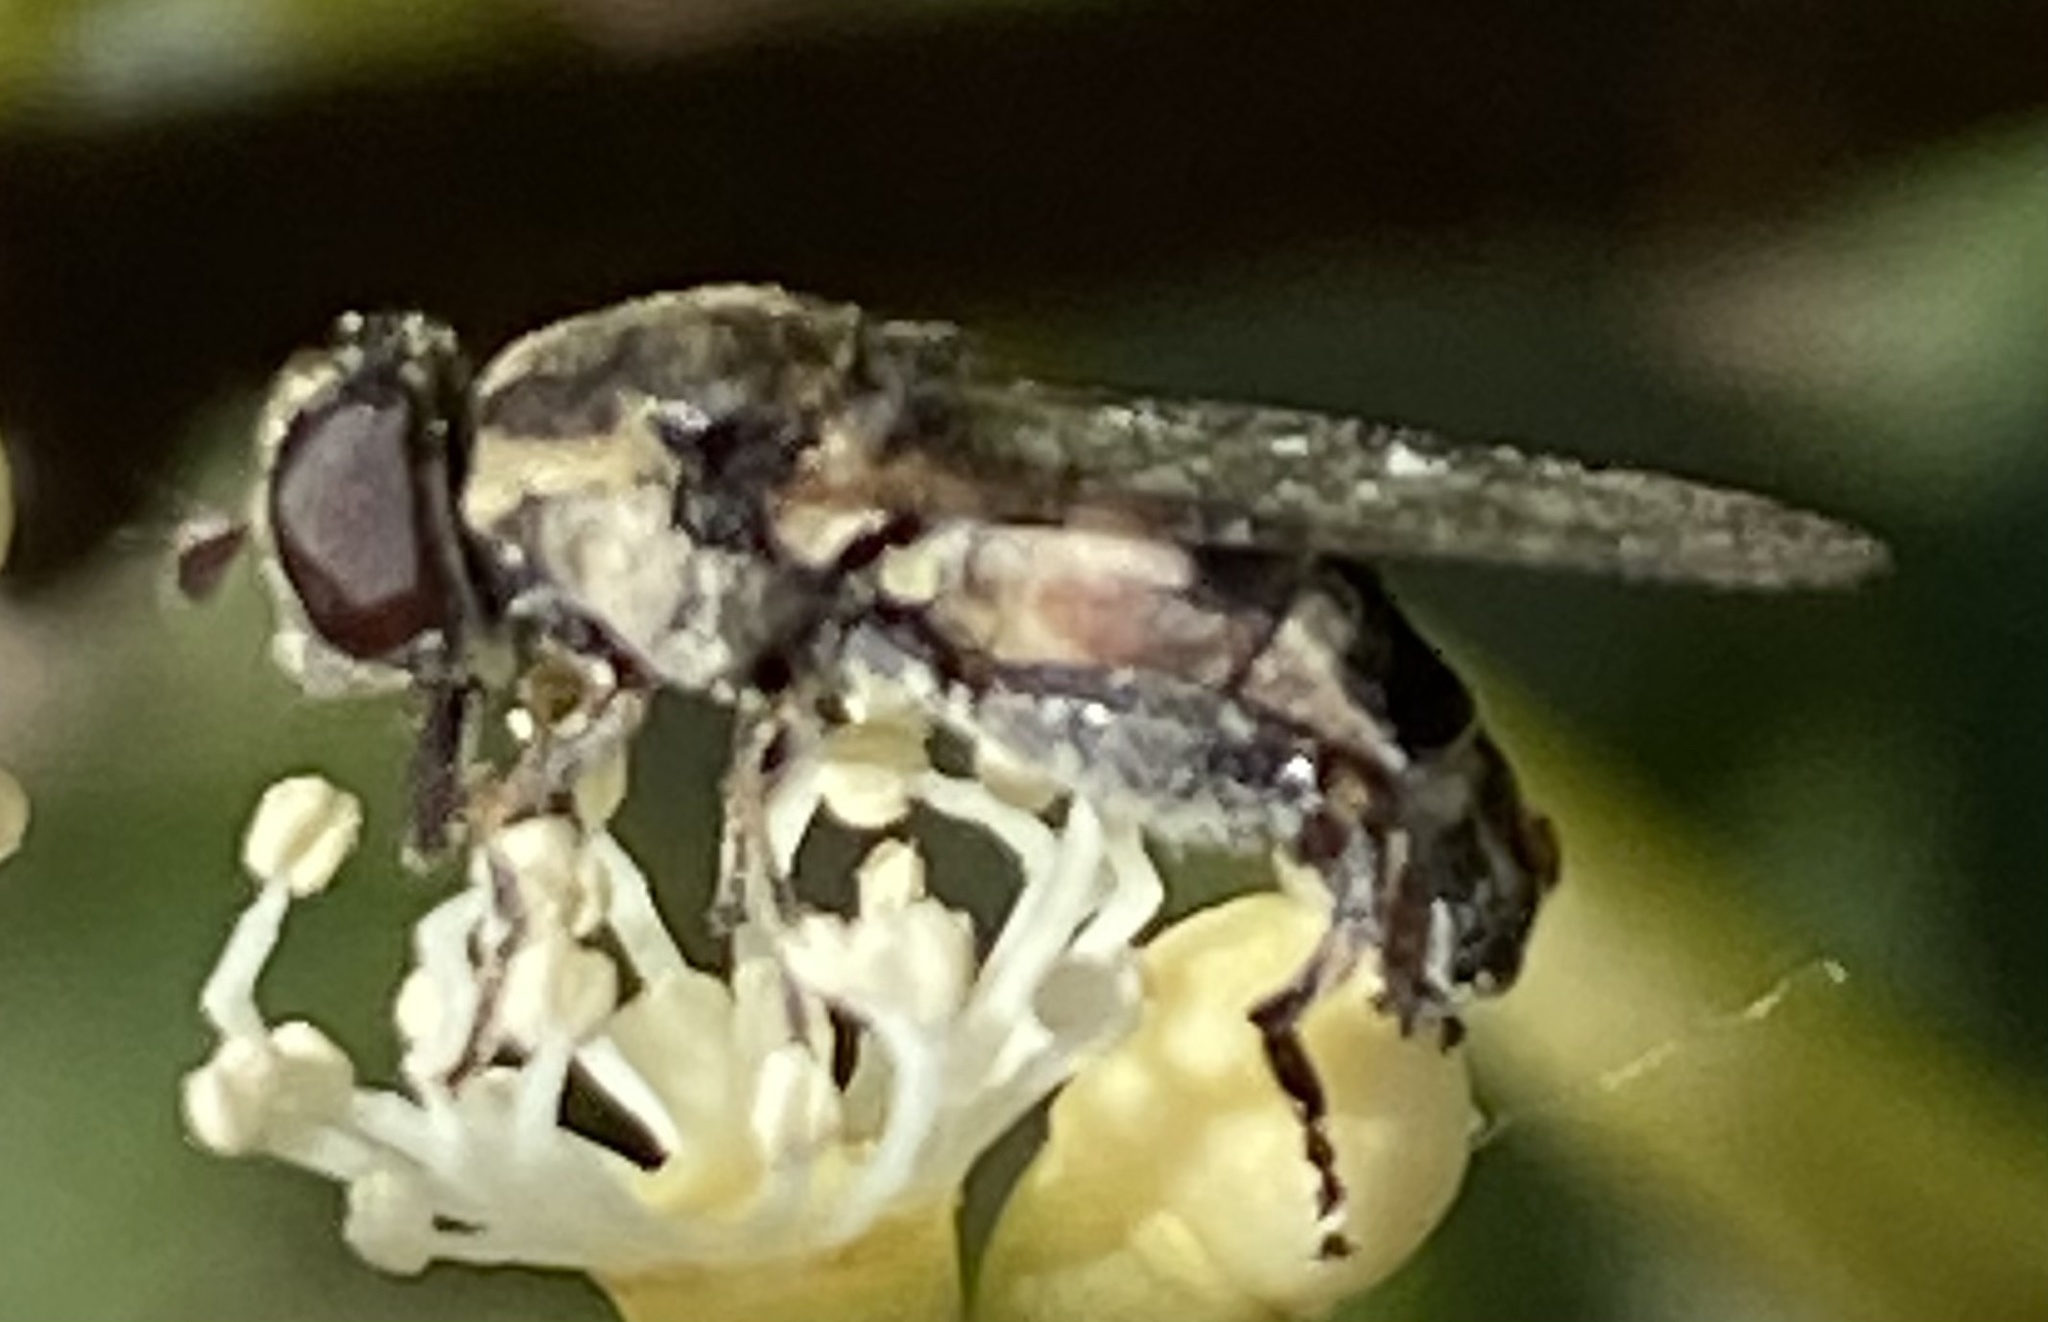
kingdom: Animalia
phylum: Arthropoda
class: Insecta
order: Diptera
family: Syrphidae
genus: Syritta
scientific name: Syritta pipiens
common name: Hover fly
